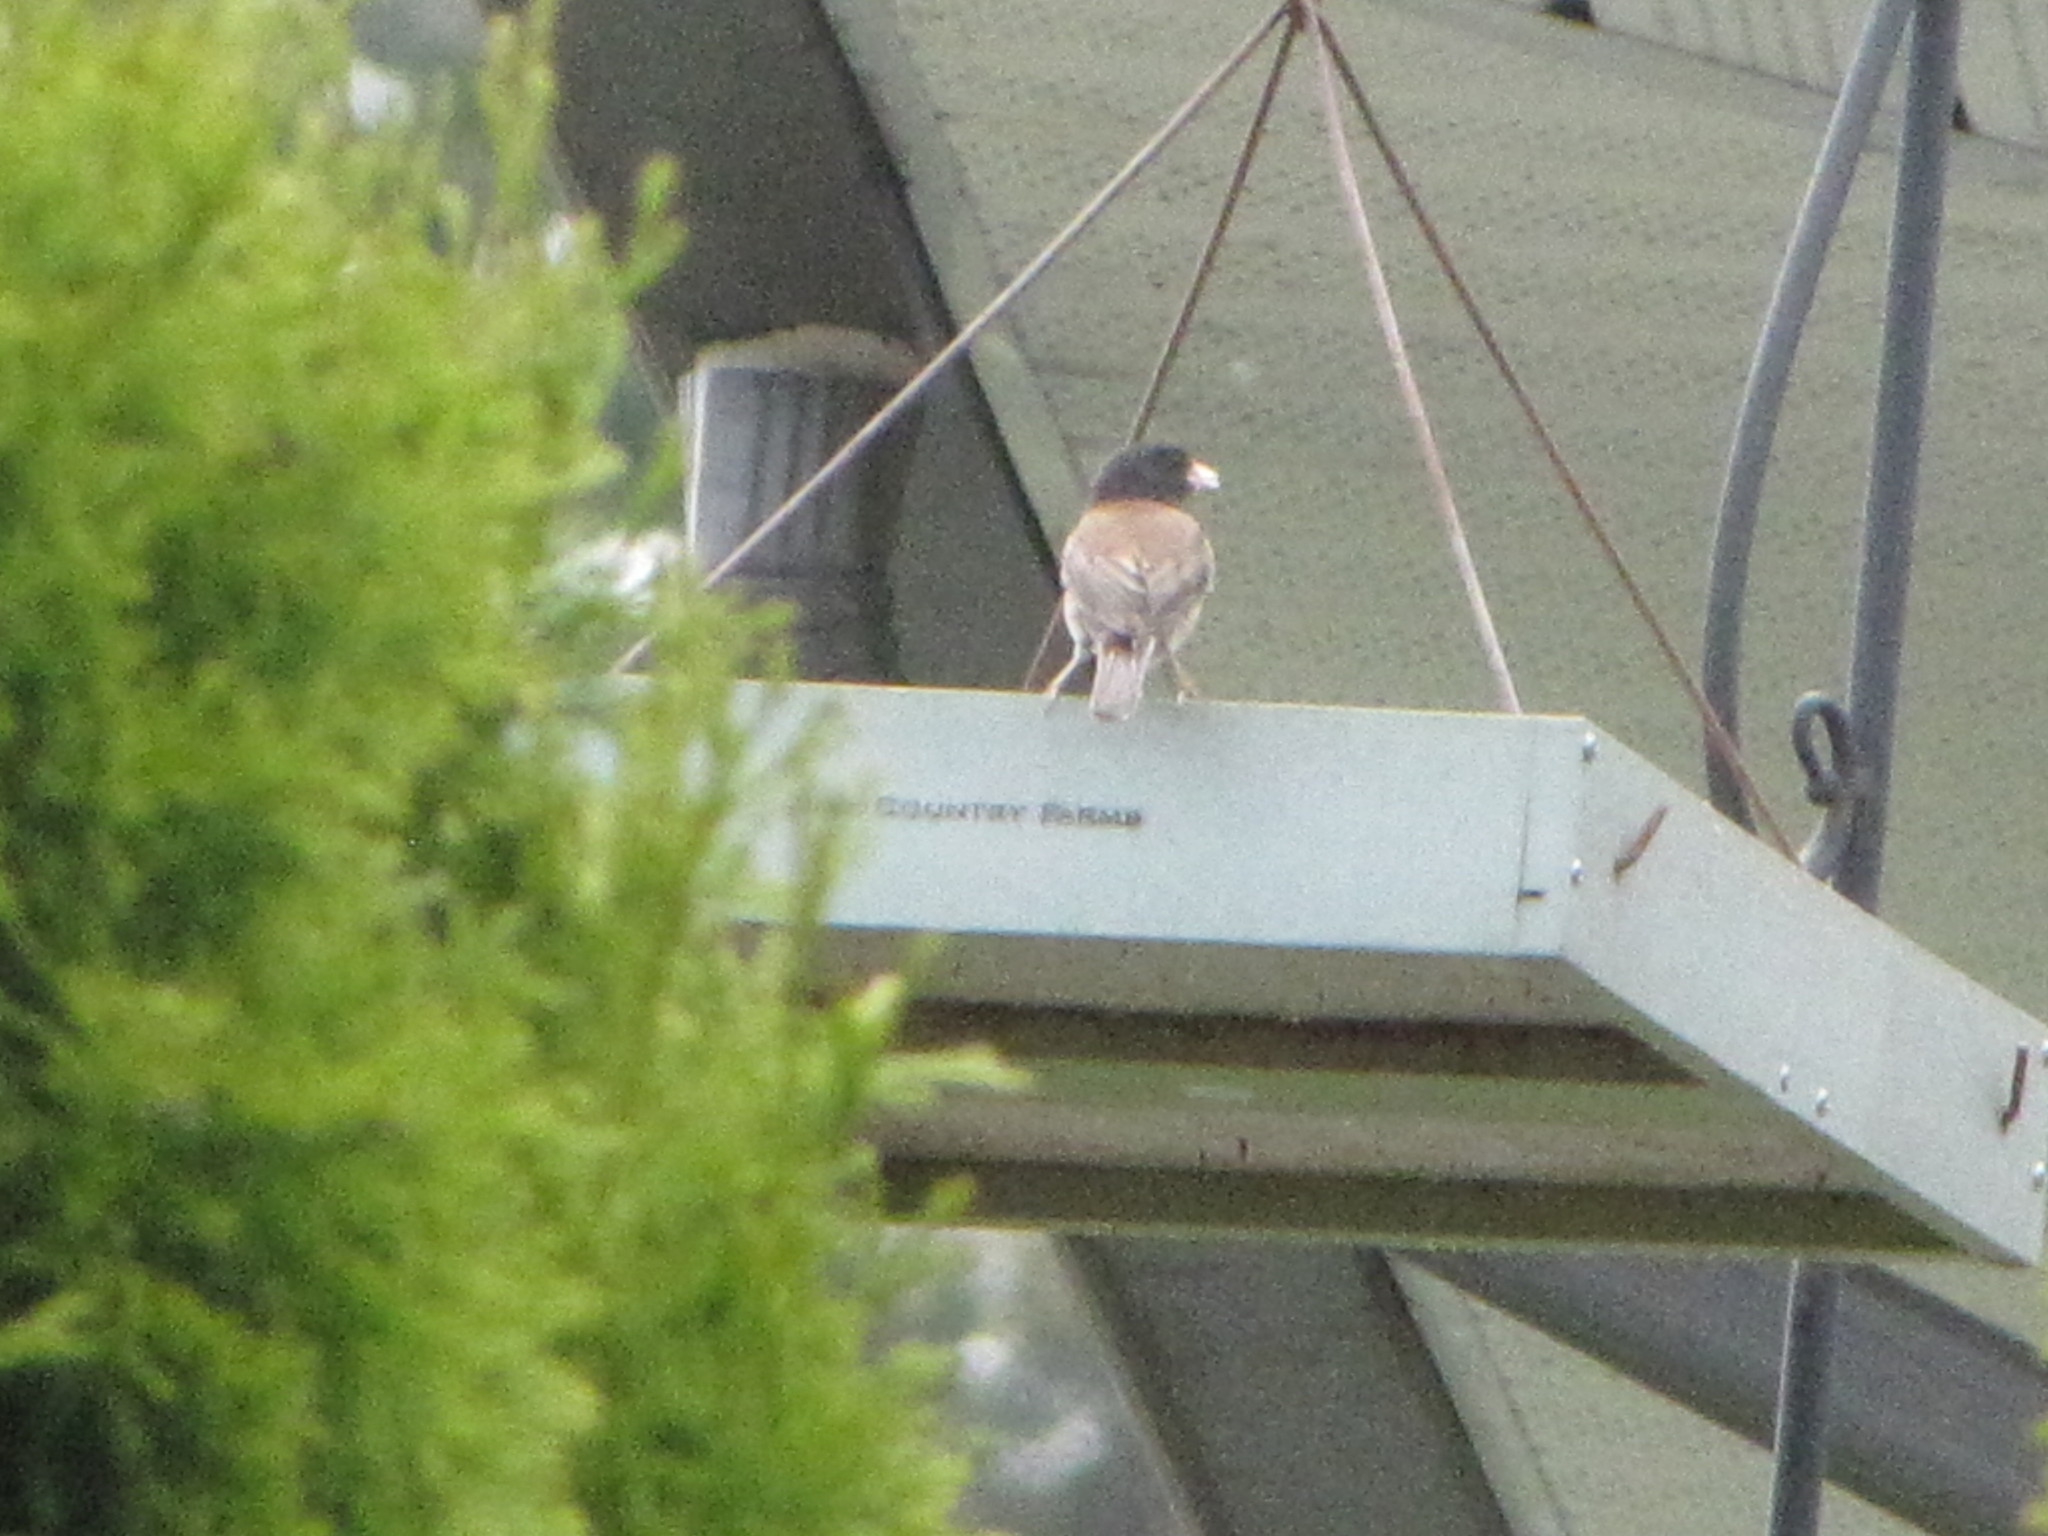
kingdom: Animalia
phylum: Chordata
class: Aves
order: Passeriformes
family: Passerellidae
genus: Junco
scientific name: Junco hyemalis
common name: Dark-eyed junco
